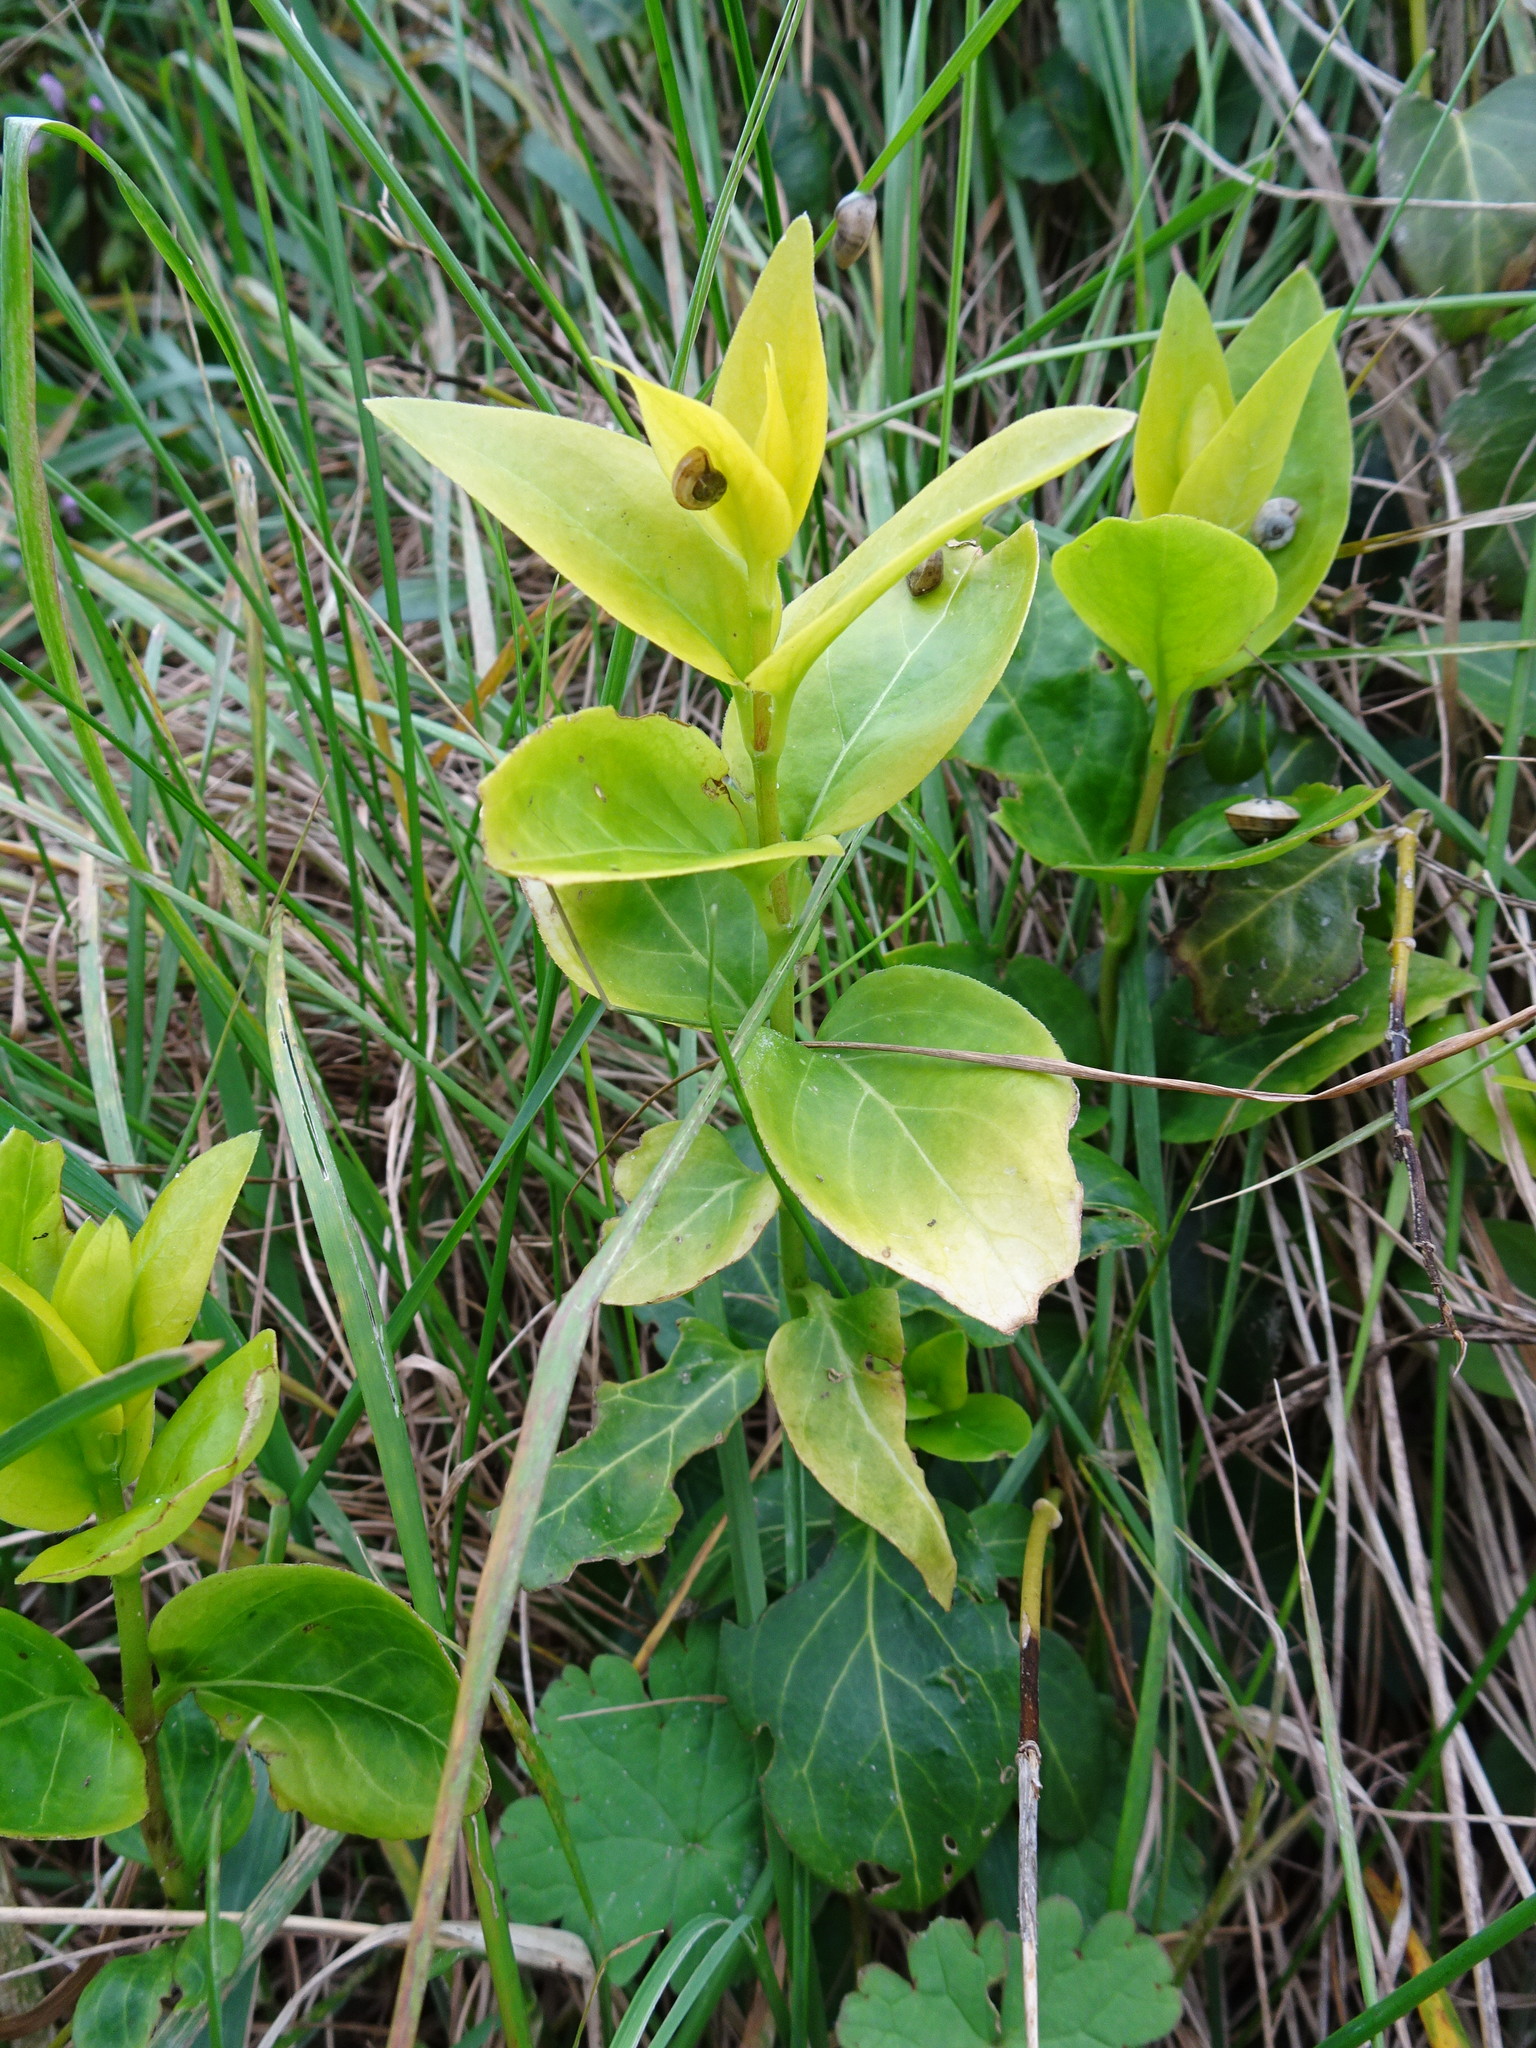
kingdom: Plantae
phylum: Tracheophyta
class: Magnoliopsida
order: Gentianales
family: Apocynaceae
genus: Vinca
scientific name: Vinca major
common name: Greater periwinkle
